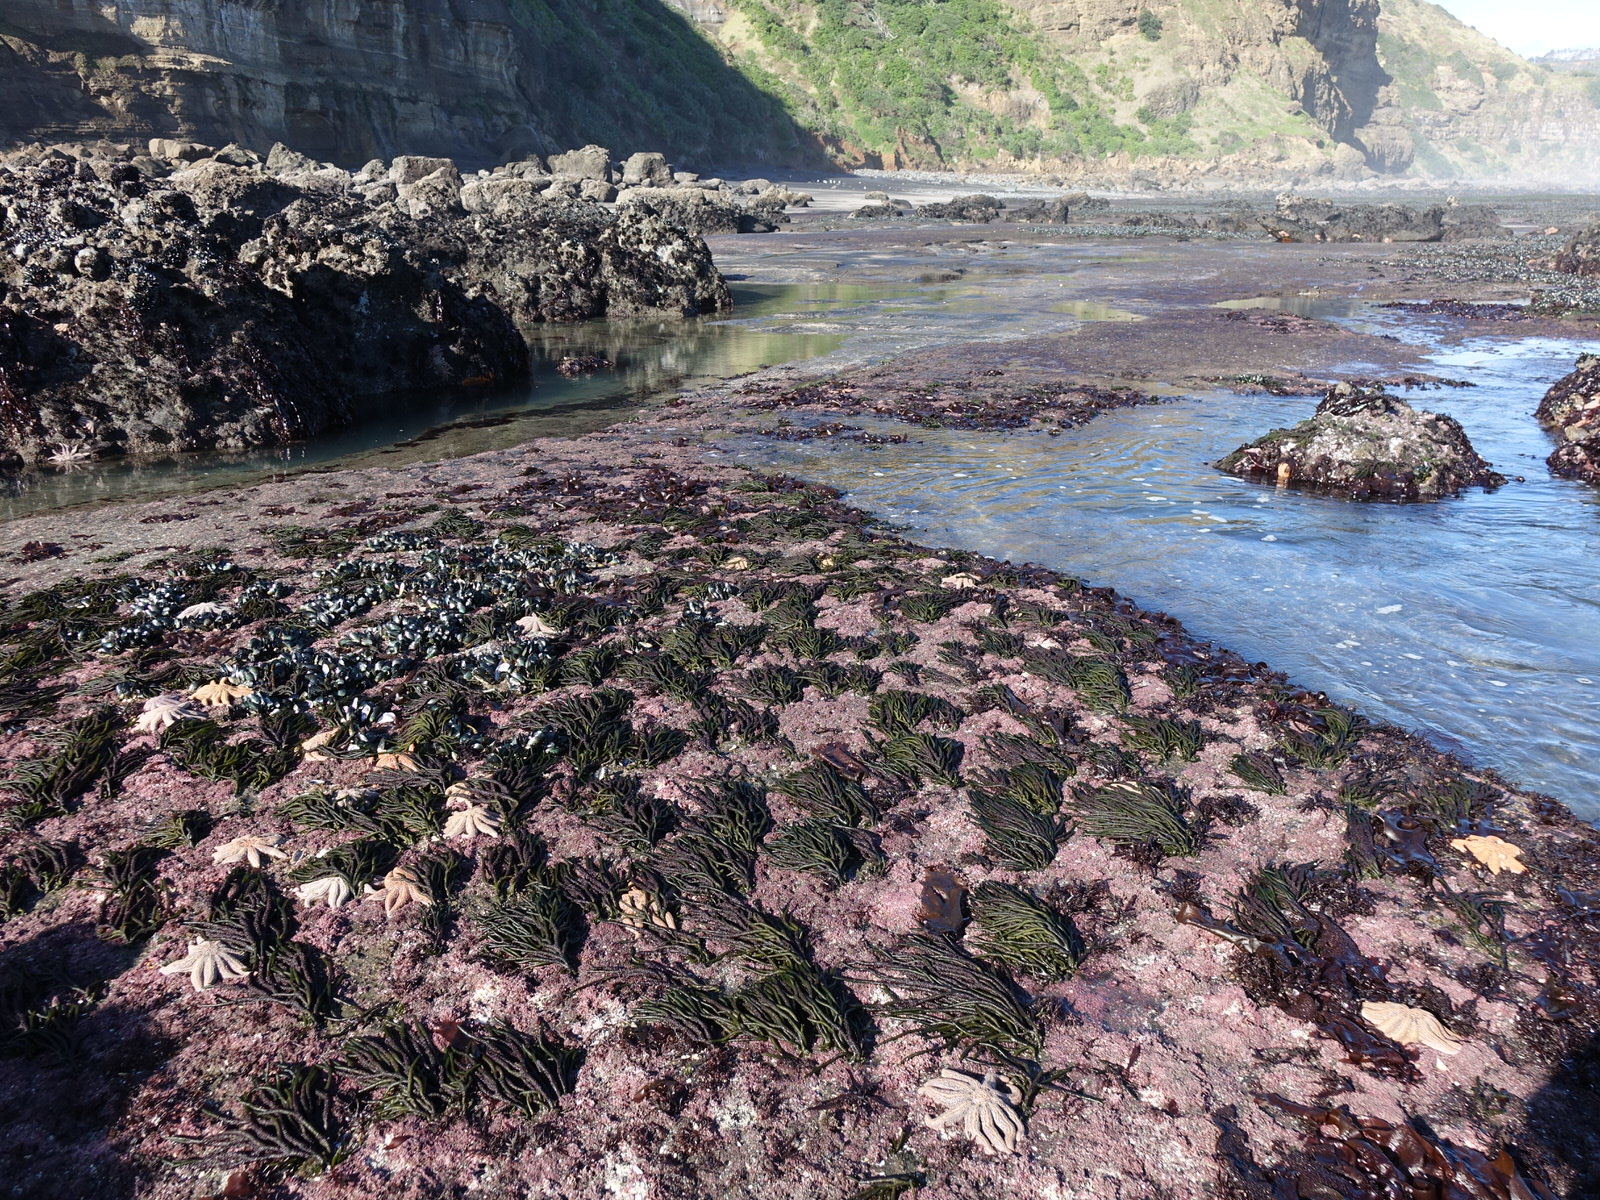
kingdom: Plantae
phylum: Chlorophyta
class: Ulvophyceae
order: Bryopsidales
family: Codiaceae
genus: Codium
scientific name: Codium fragile
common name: Dead man's fingers
